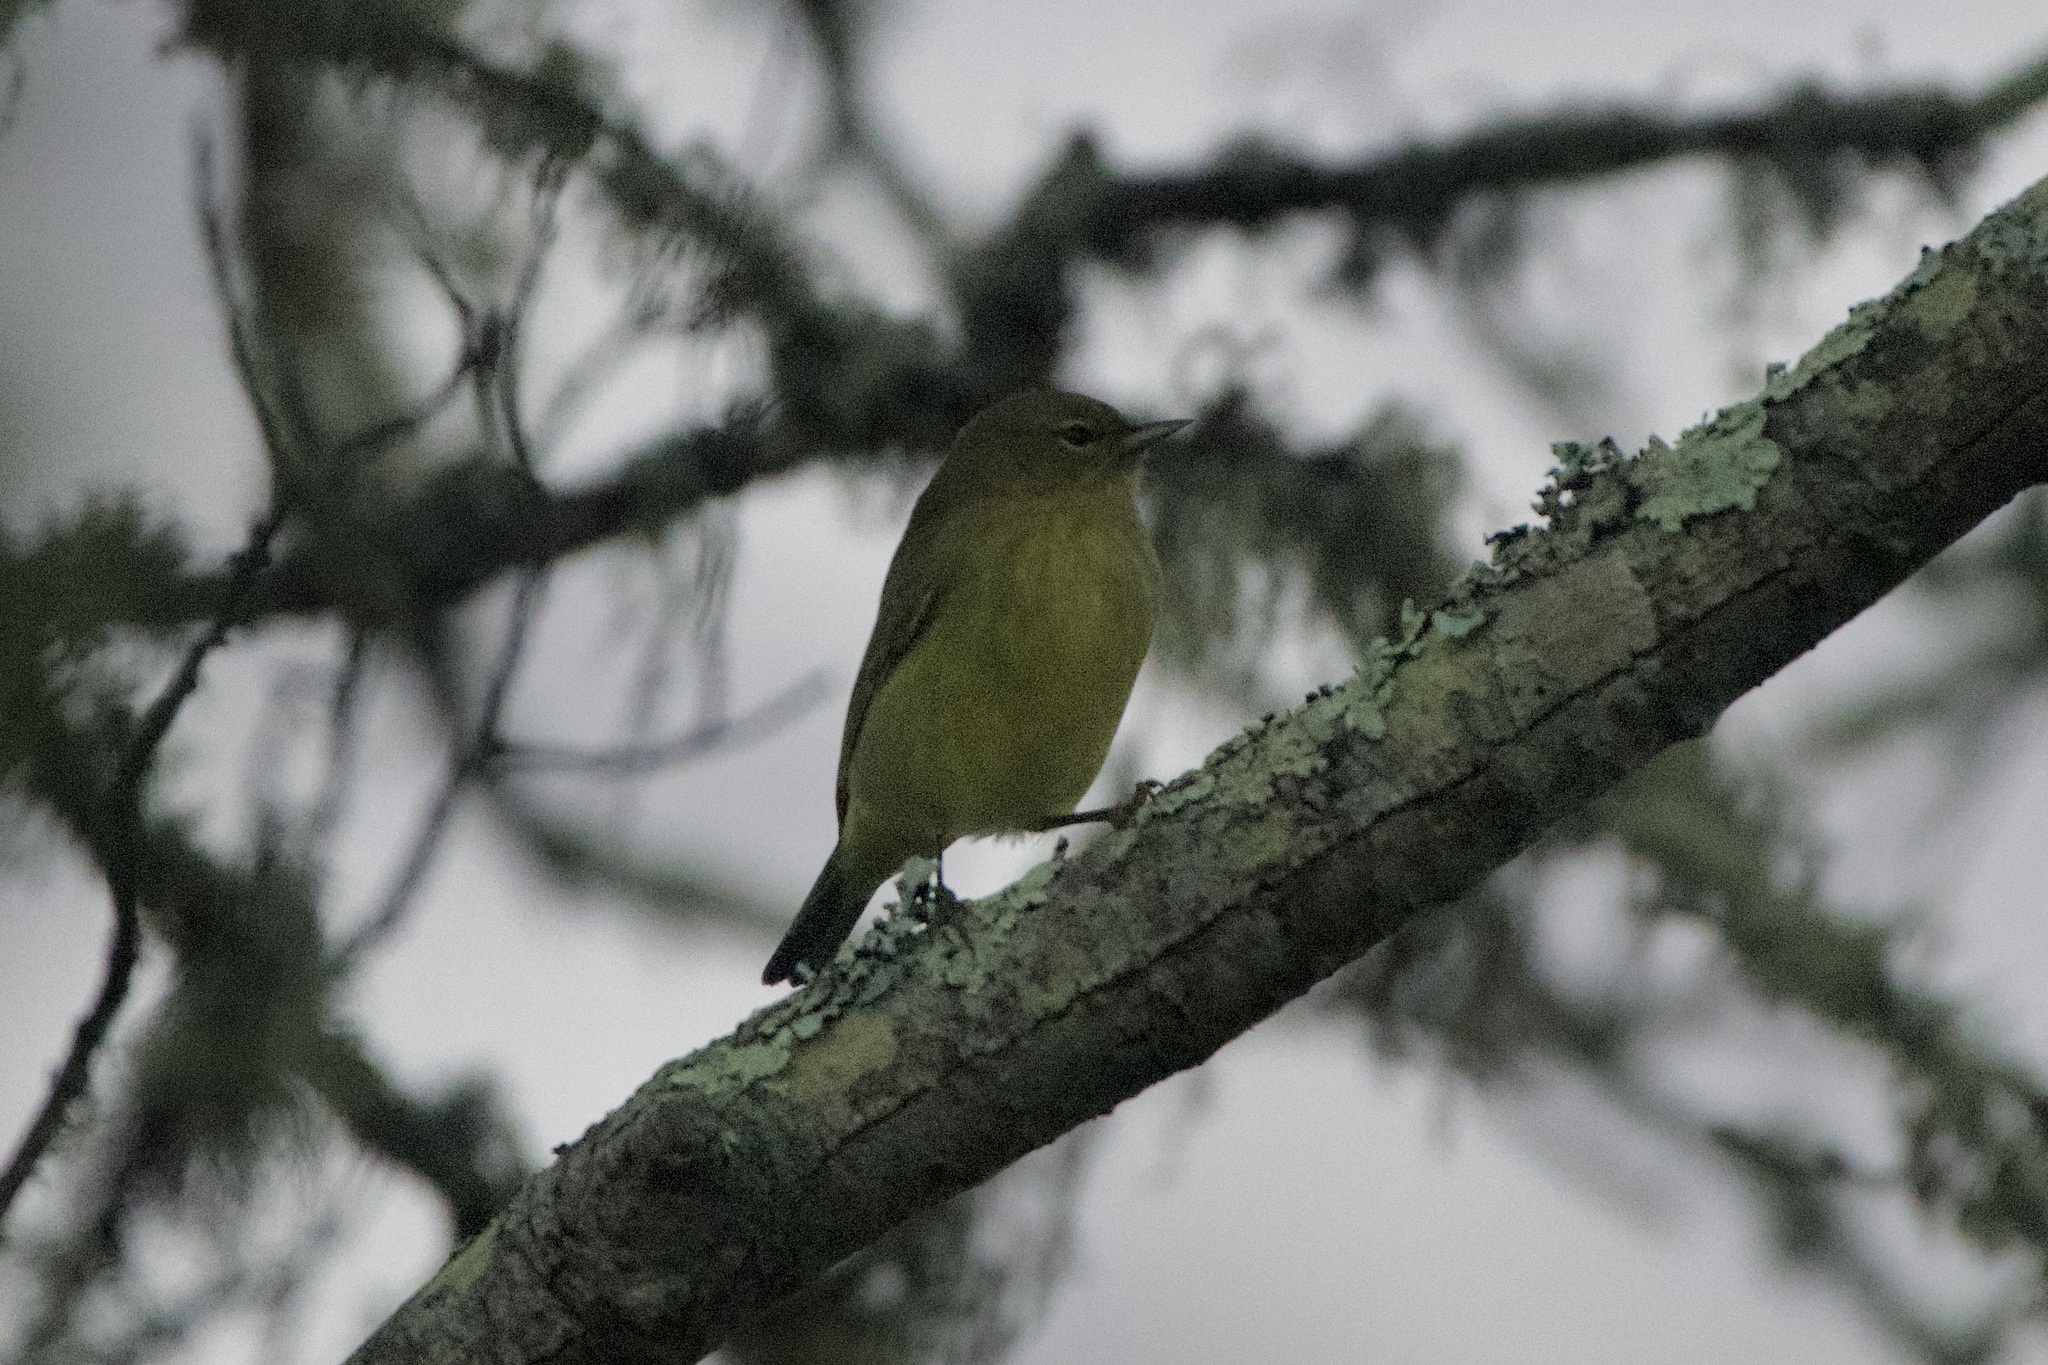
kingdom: Animalia
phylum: Chordata
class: Aves
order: Passeriformes
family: Parulidae
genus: Leiothlypis
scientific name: Leiothlypis celata
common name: Orange-crowned warbler
